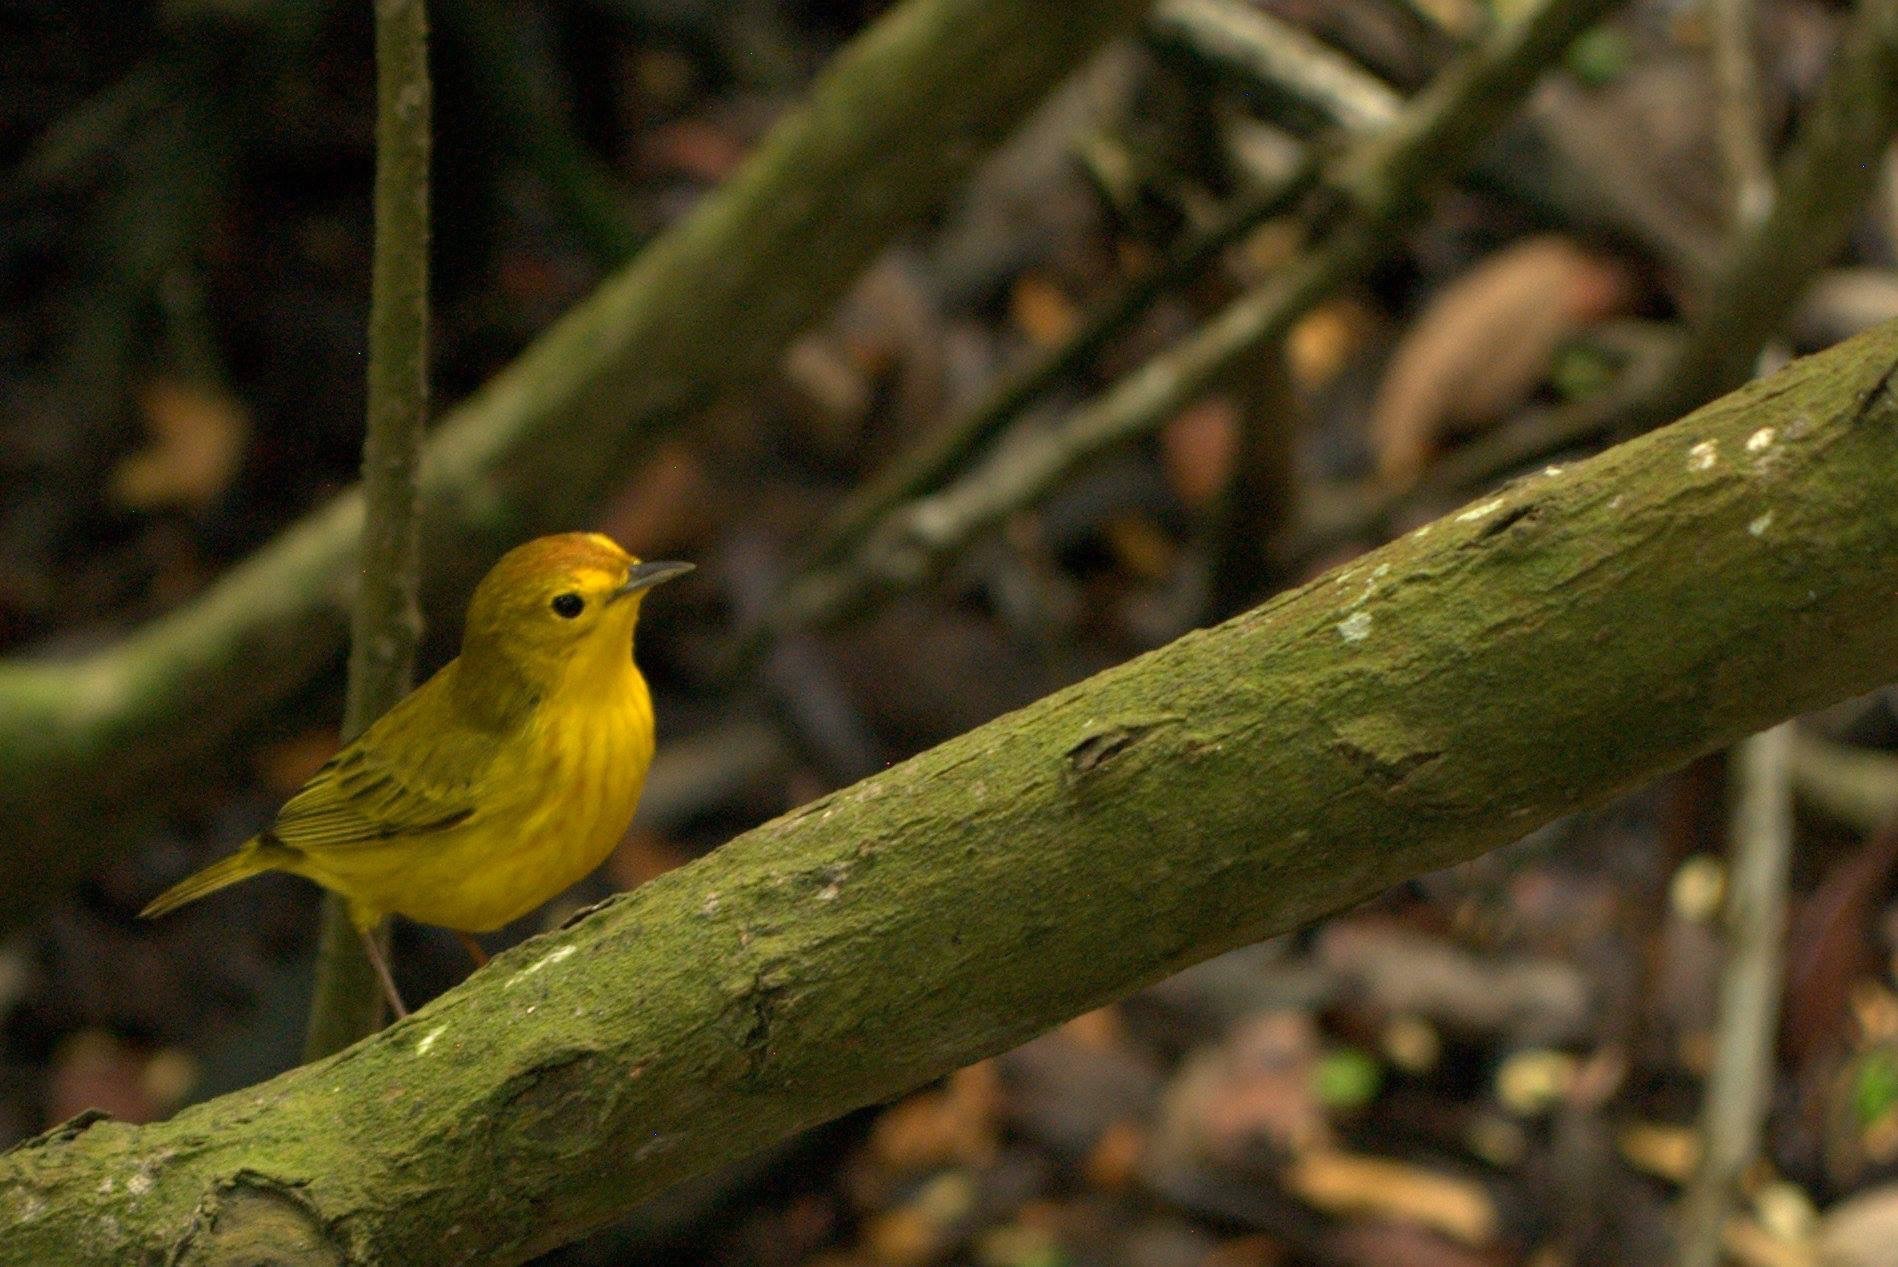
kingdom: Animalia
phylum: Chordata
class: Aves
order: Passeriformes
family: Parulidae
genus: Setophaga
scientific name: Setophaga petechia
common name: Yellow warbler
